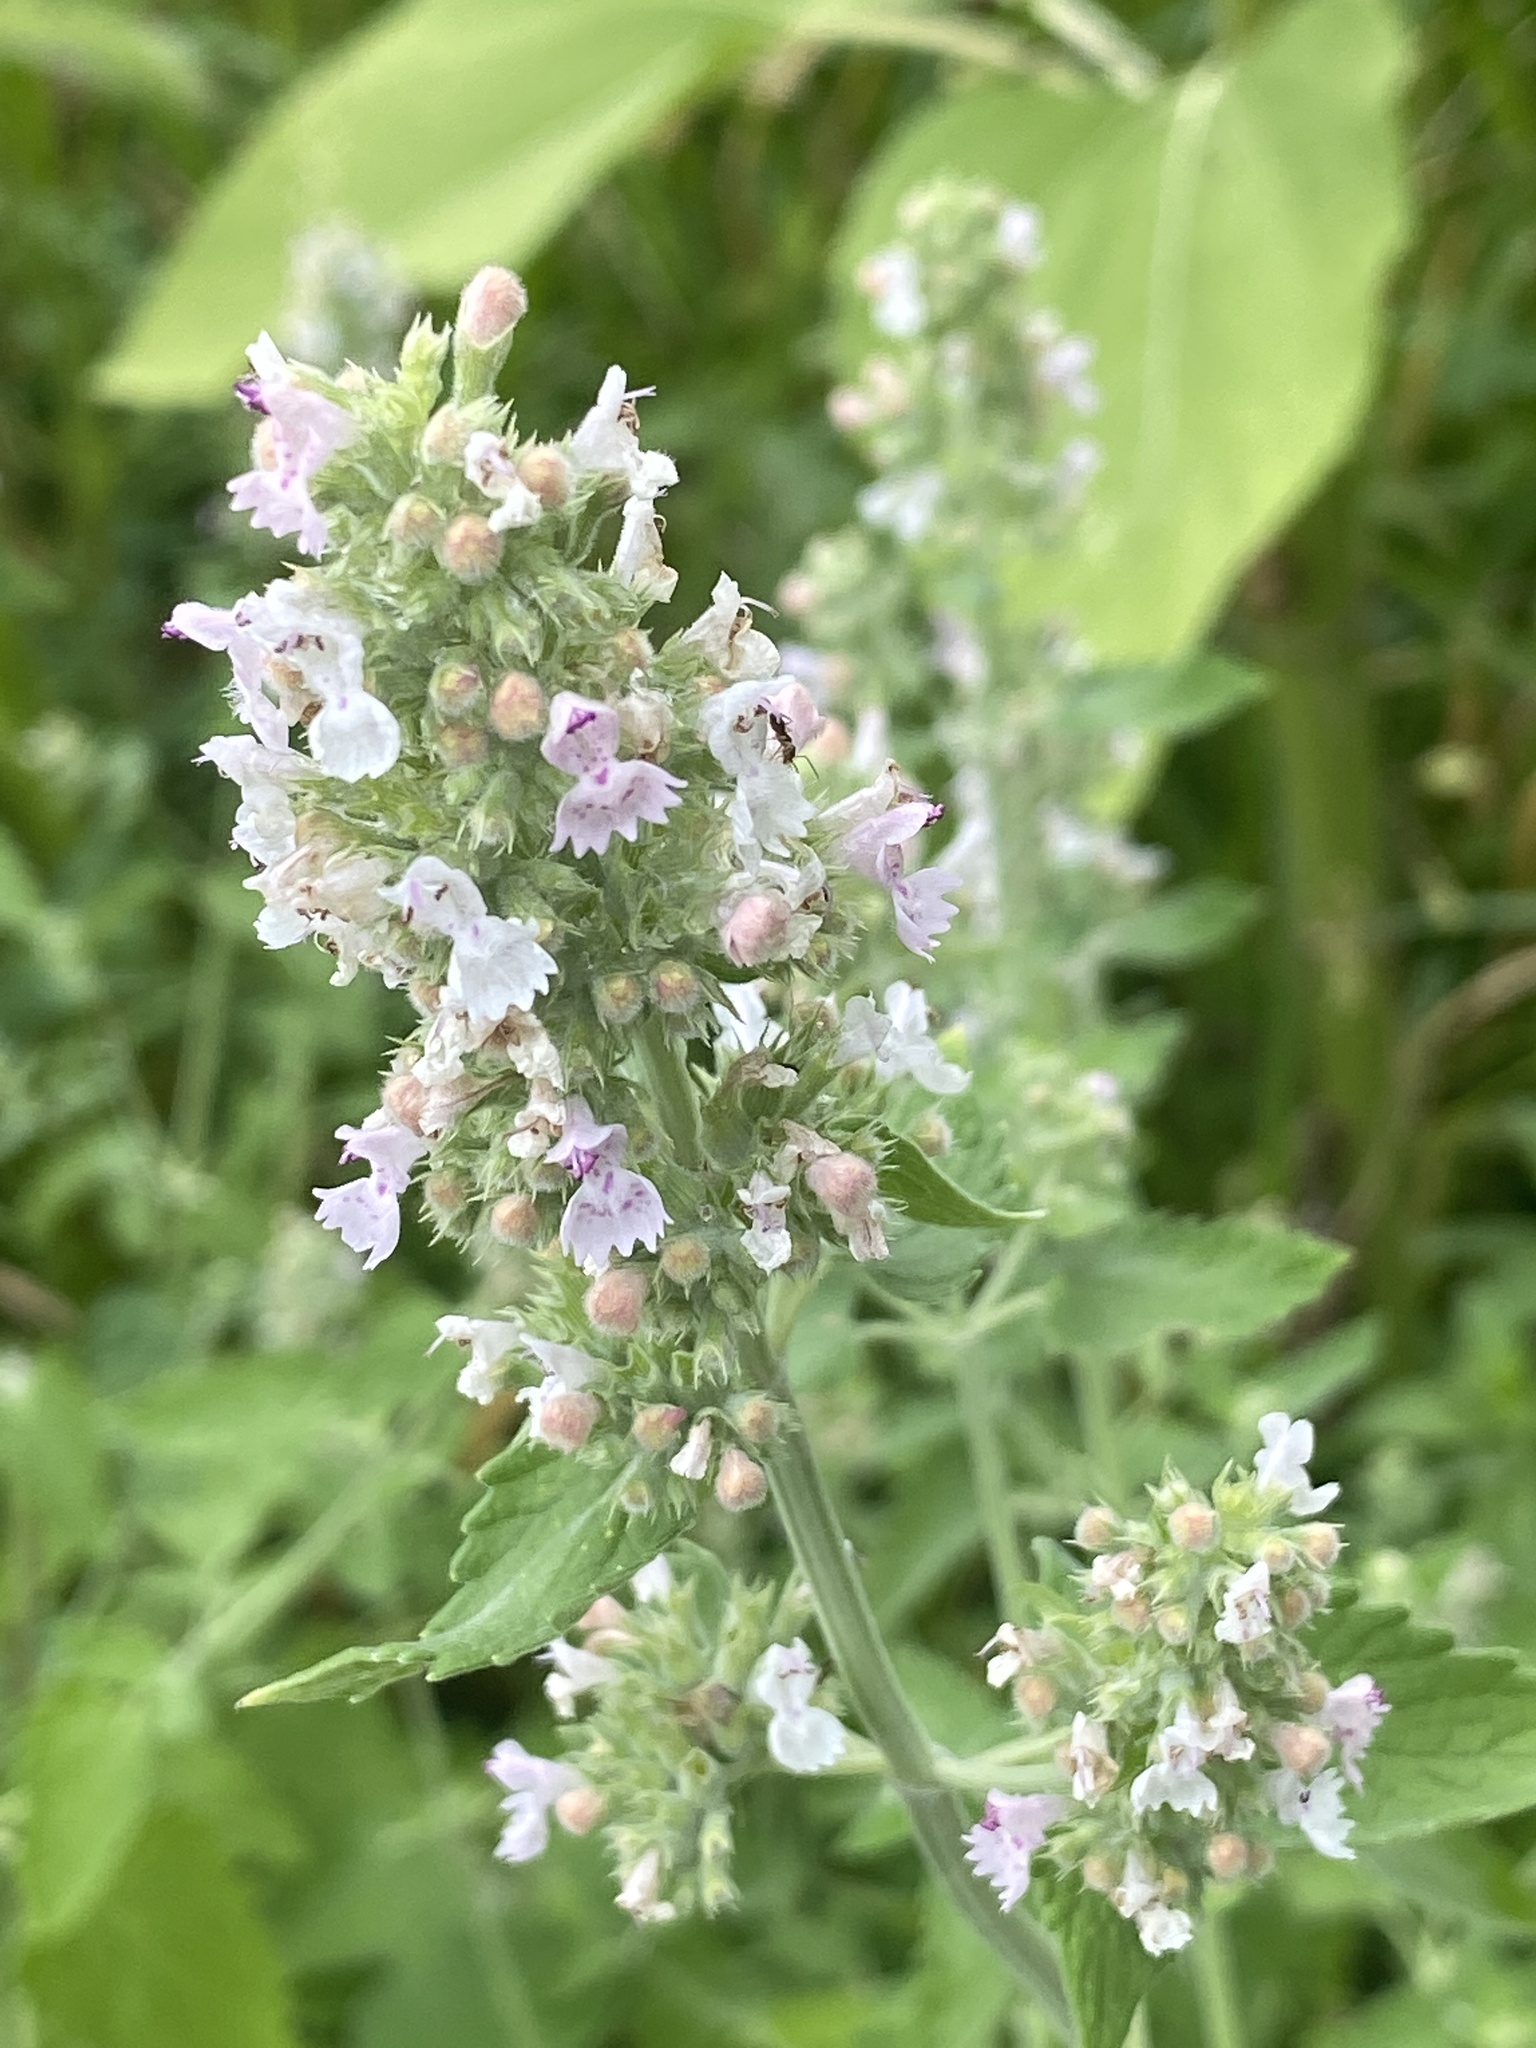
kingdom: Plantae
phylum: Tracheophyta
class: Magnoliopsida
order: Lamiales
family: Lamiaceae
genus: Nepeta
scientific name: Nepeta cataria
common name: Catnip
